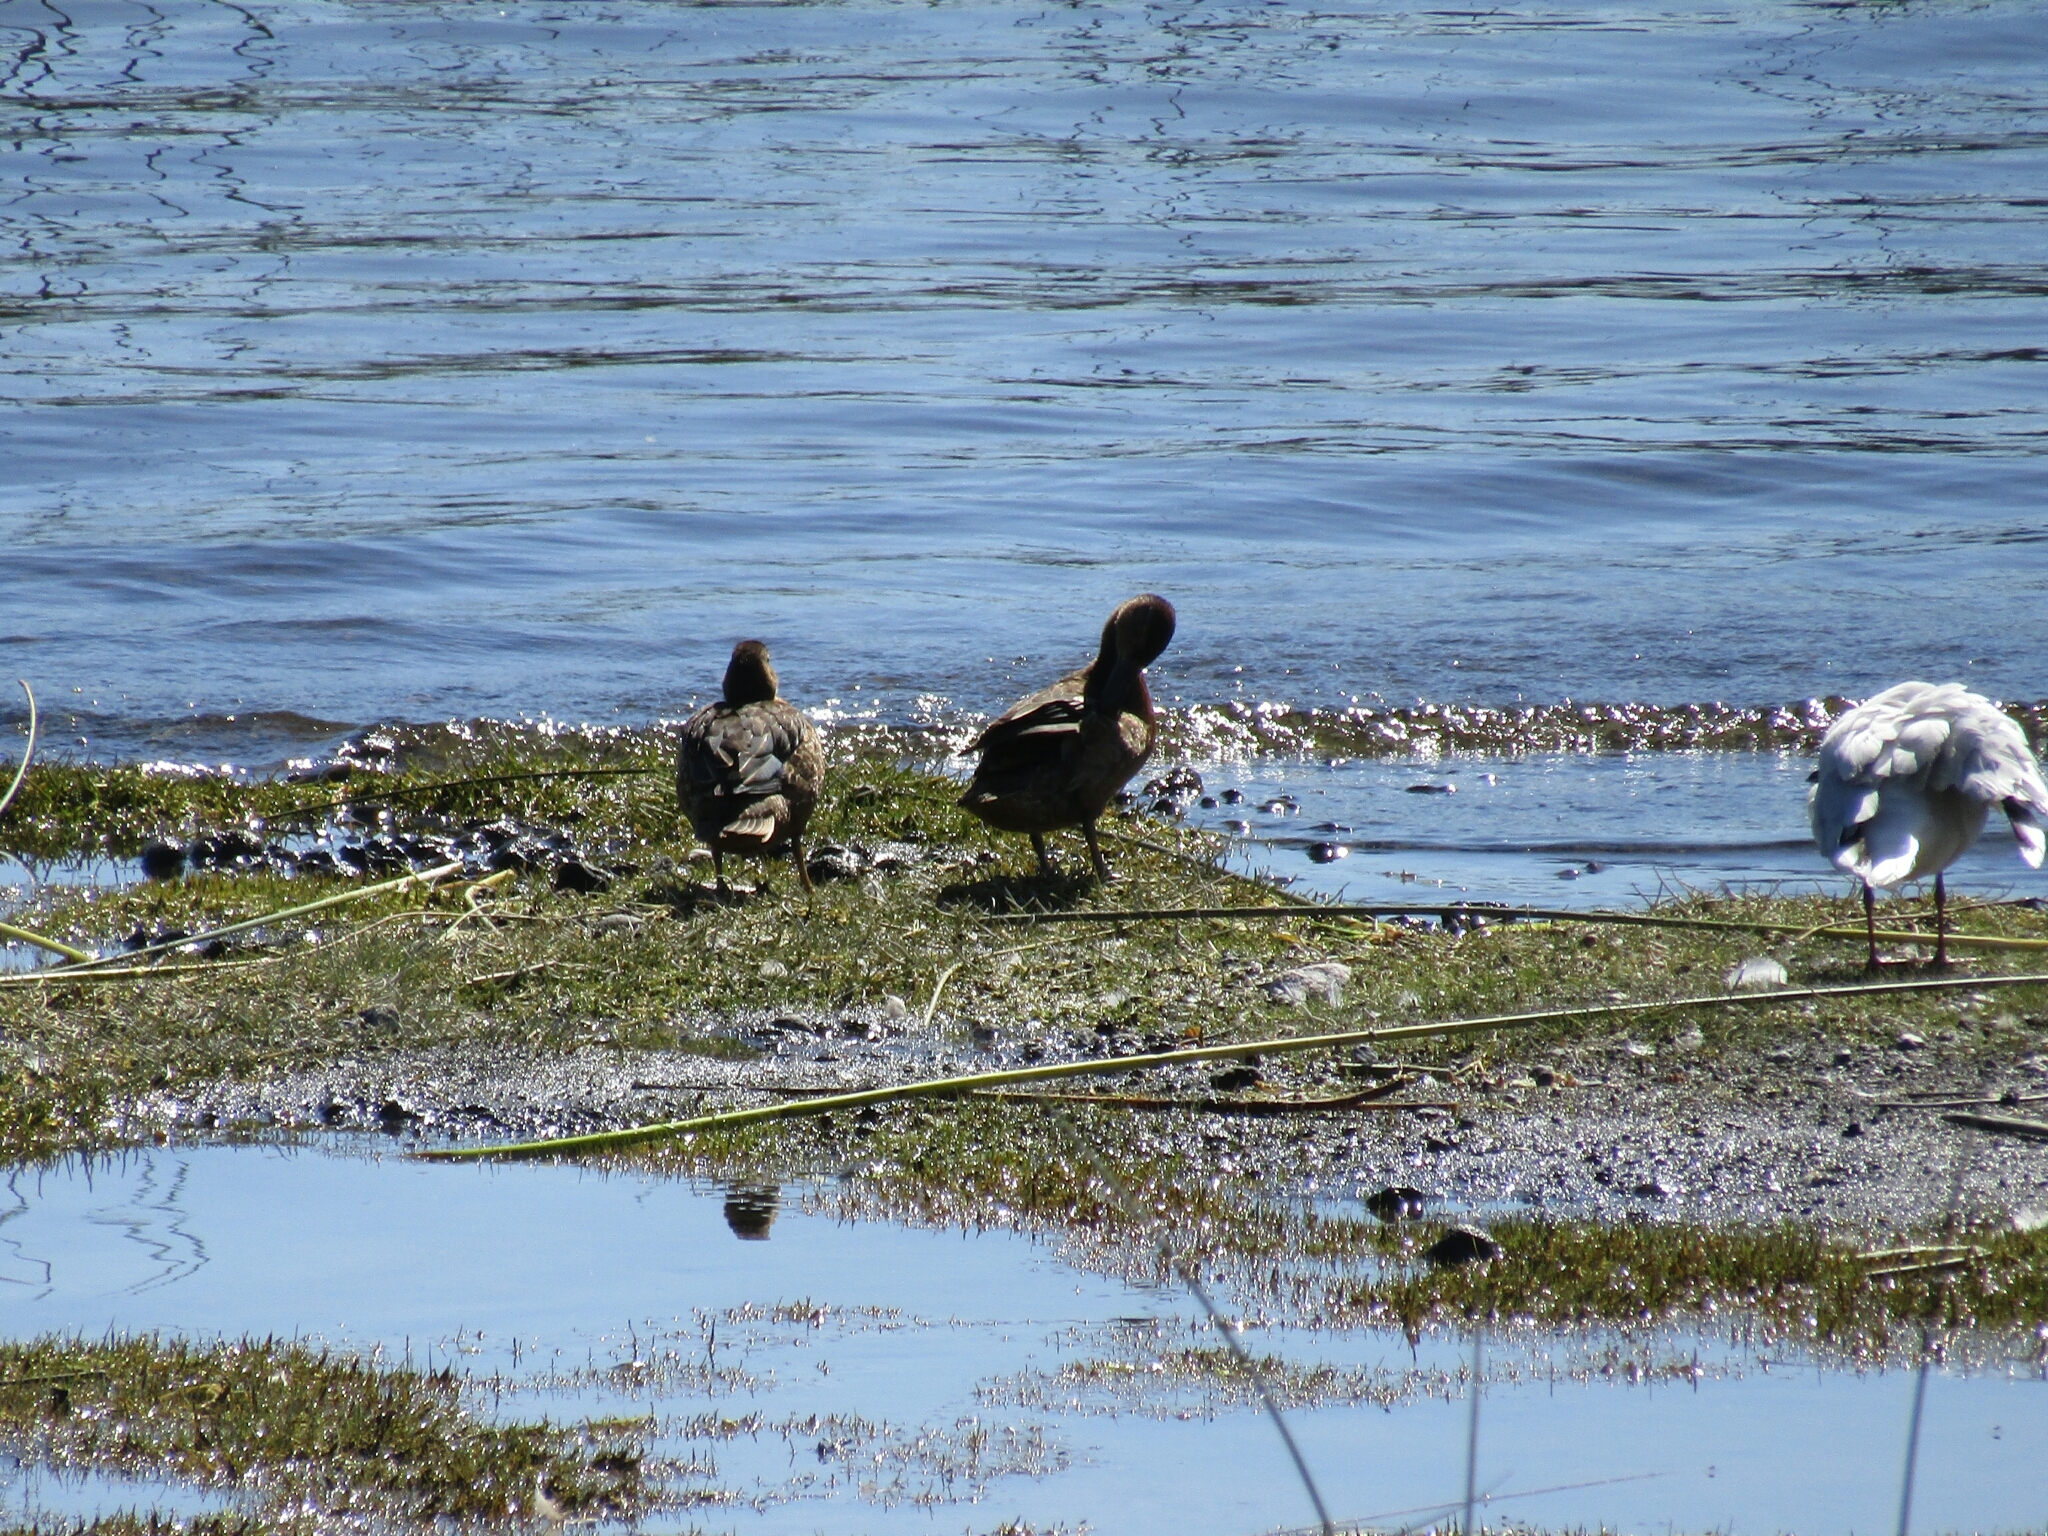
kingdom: Animalia
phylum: Chordata
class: Aves
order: Anseriformes
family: Anatidae
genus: Spatula
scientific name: Spatula cyanoptera
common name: Cinnamon teal
